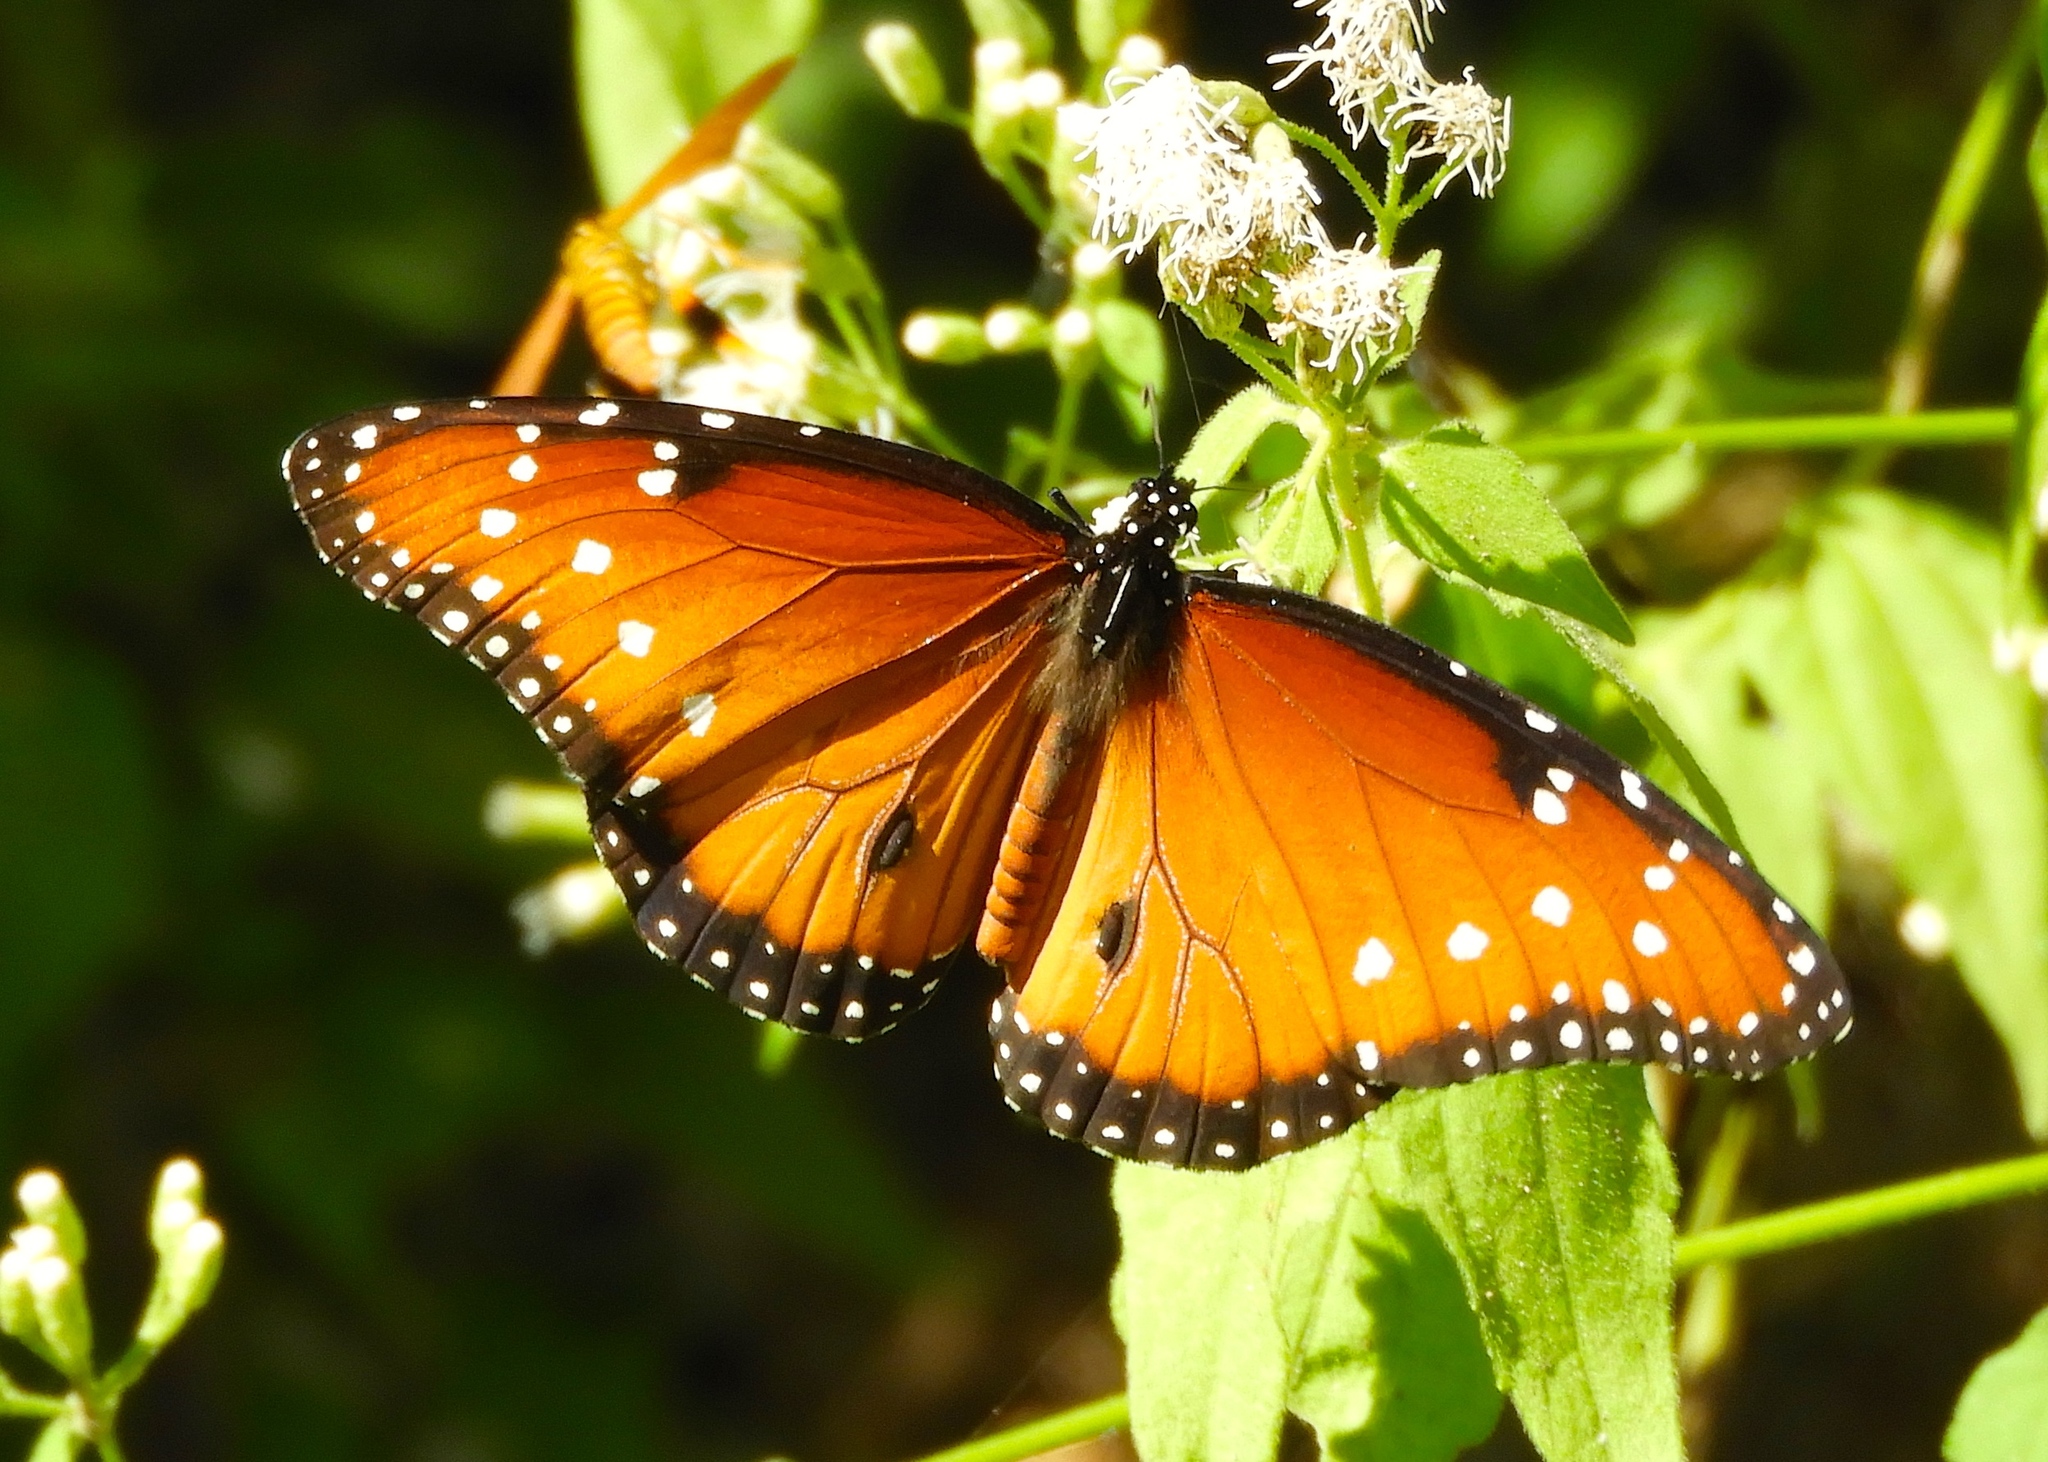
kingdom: Animalia
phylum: Arthropoda
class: Insecta
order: Lepidoptera
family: Nymphalidae
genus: Danaus
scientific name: Danaus gilippus
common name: Queen
